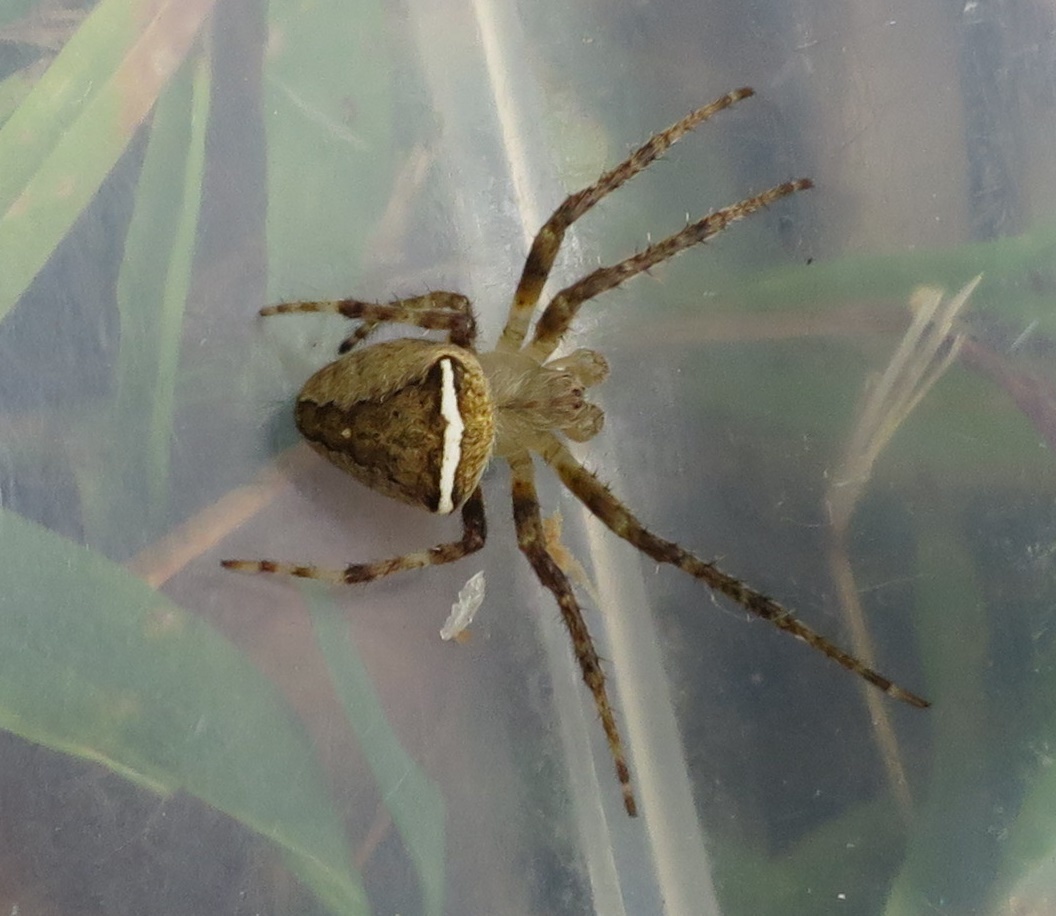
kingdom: Animalia
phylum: Arthropoda
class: Arachnida
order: Araneae
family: Araneidae
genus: Zealaranea
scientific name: Zealaranea crassa
